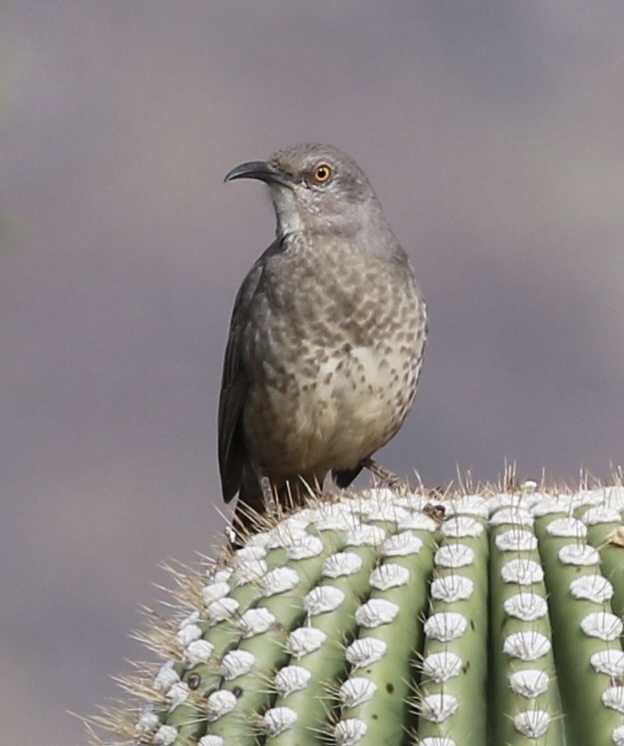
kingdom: Animalia
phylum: Chordata
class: Aves
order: Passeriformes
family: Mimidae
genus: Toxostoma
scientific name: Toxostoma curvirostre
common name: Curve-billed thrasher
